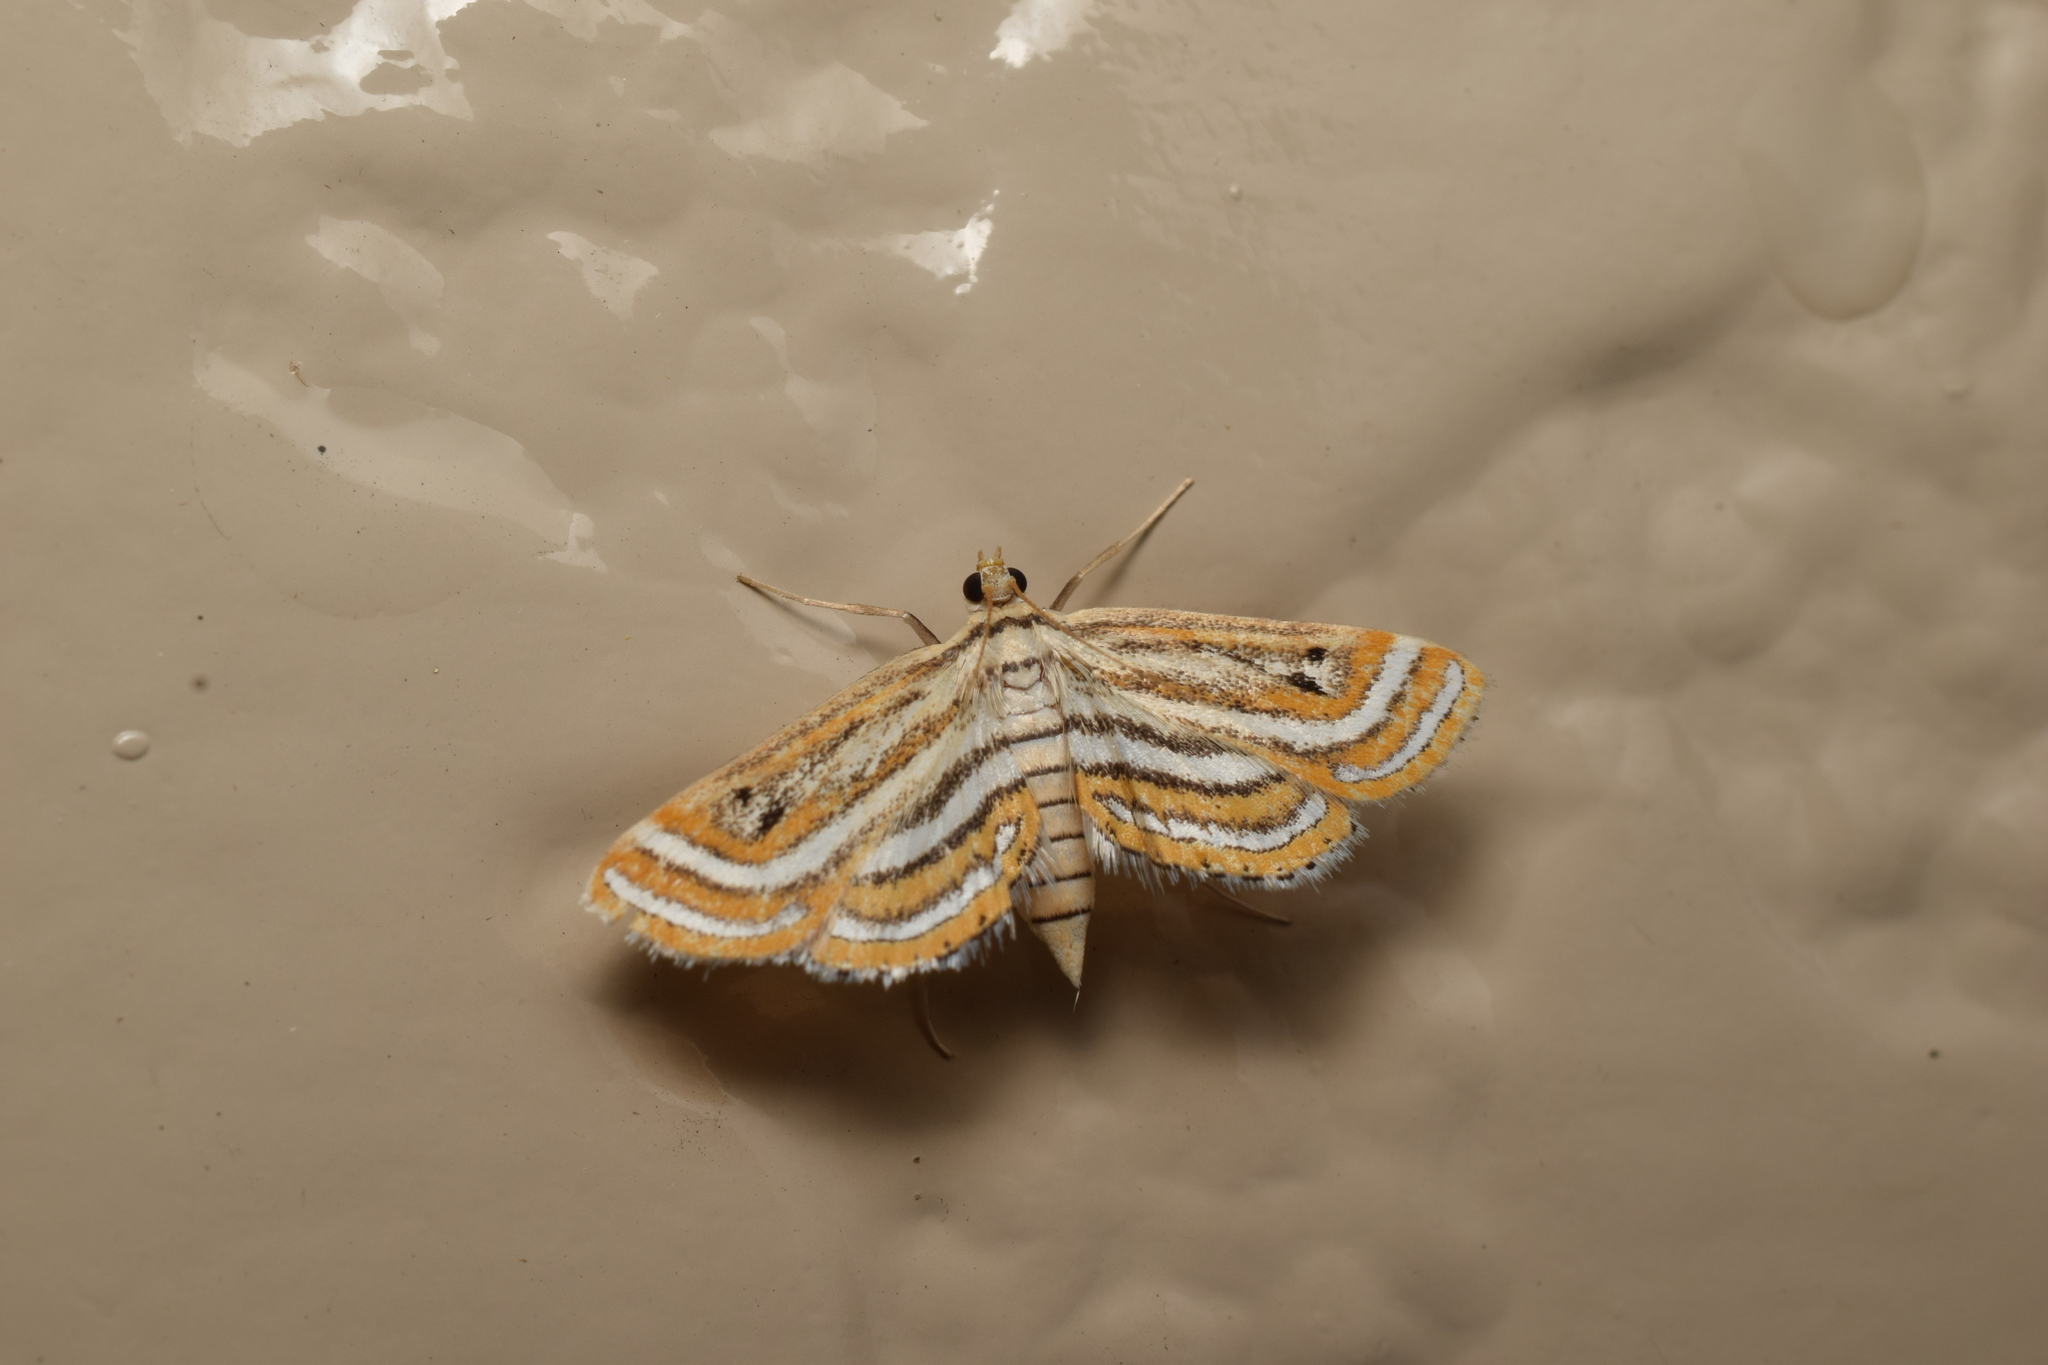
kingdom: Animalia
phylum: Arthropoda
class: Insecta
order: Lepidoptera
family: Crambidae
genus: Parapoynx
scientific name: Parapoynx vittalis
